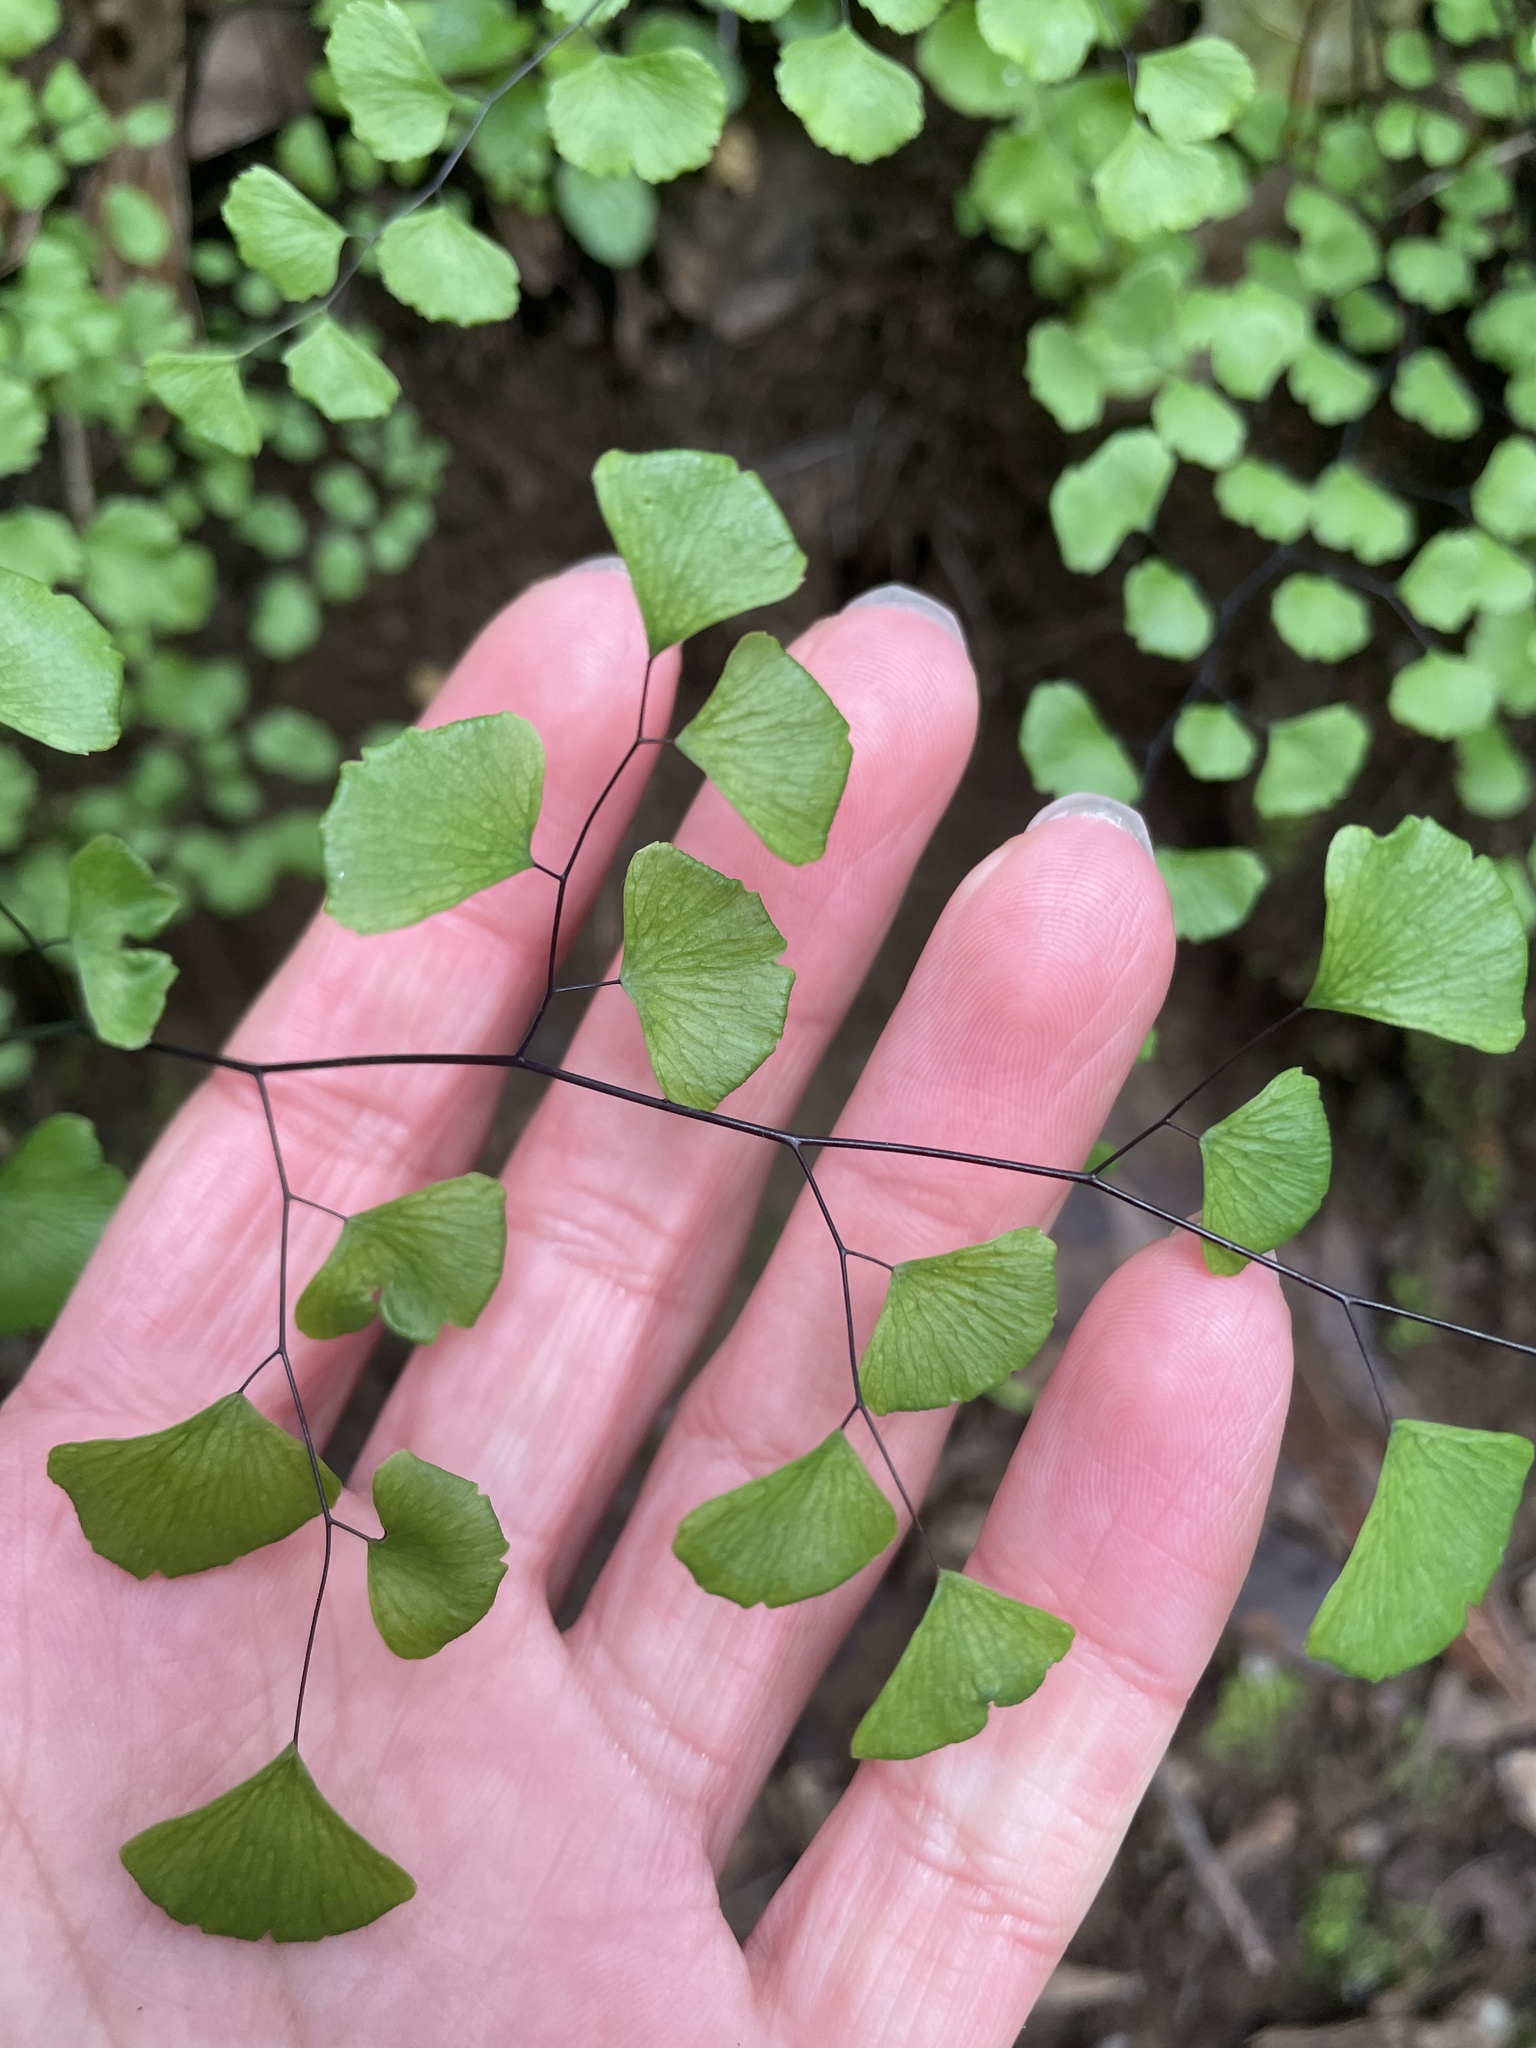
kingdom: Plantae
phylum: Tracheophyta
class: Polypodiopsida
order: Polypodiales
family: Pteridaceae
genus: Adiantum
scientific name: Adiantum jordanii
